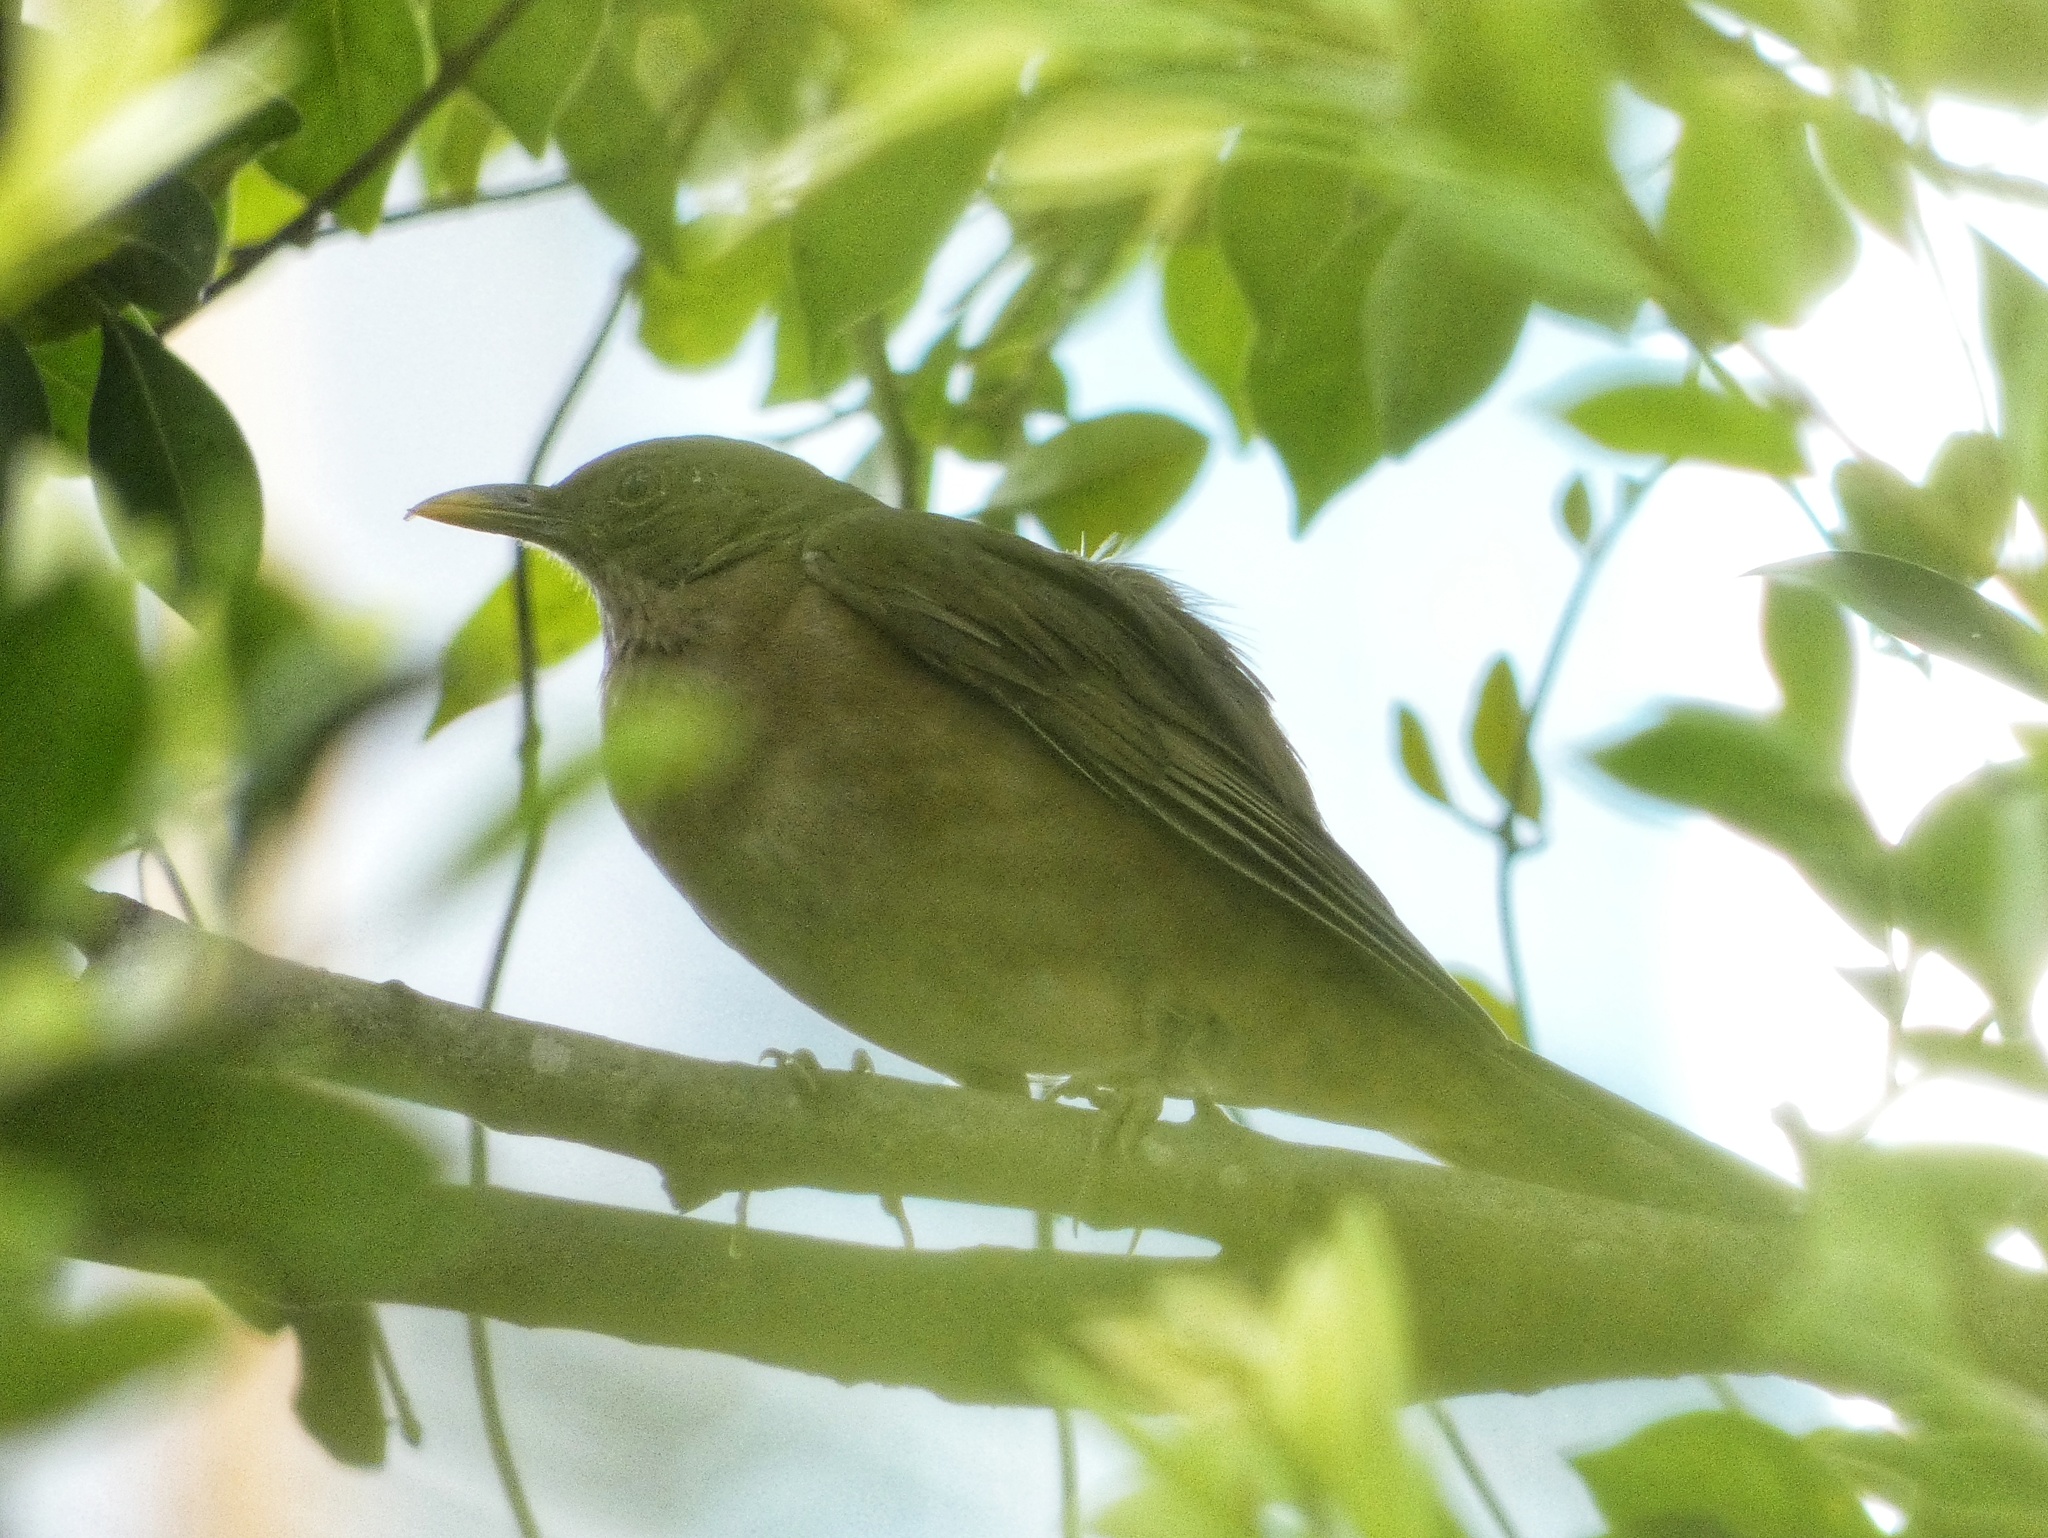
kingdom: Animalia
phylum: Chordata
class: Aves
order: Passeriformes
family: Turdidae
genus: Turdus
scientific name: Turdus grayi
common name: Clay-colored thrush
